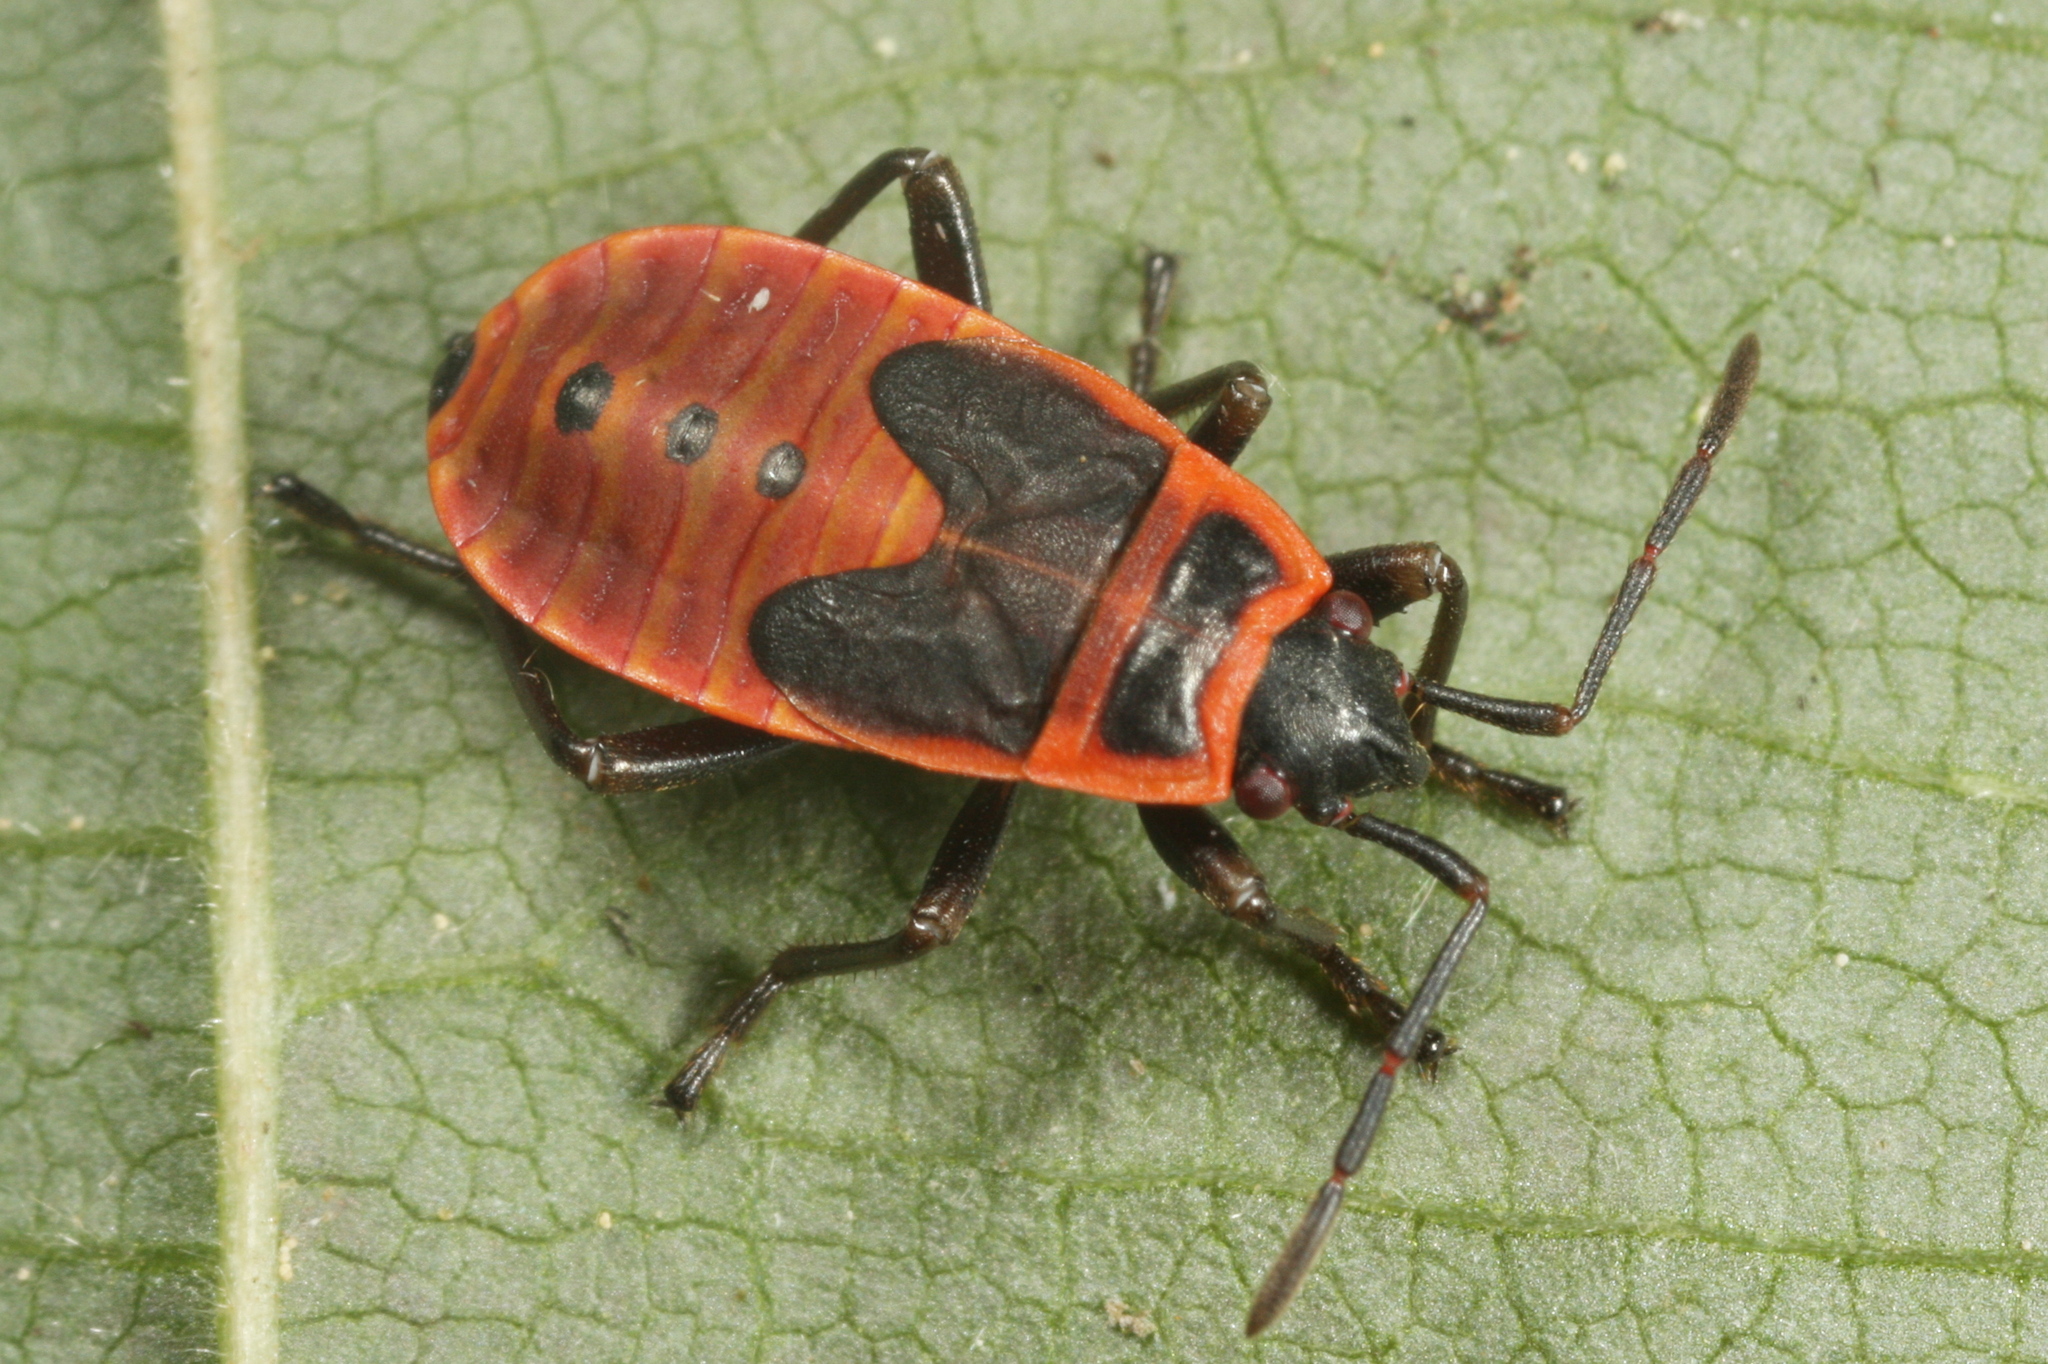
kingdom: Animalia
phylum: Arthropoda
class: Insecta
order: Hemiptera
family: Pyrrhocoridae
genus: Pyrrhocoris
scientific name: Pyrrhocoris apterus
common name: Firebug
